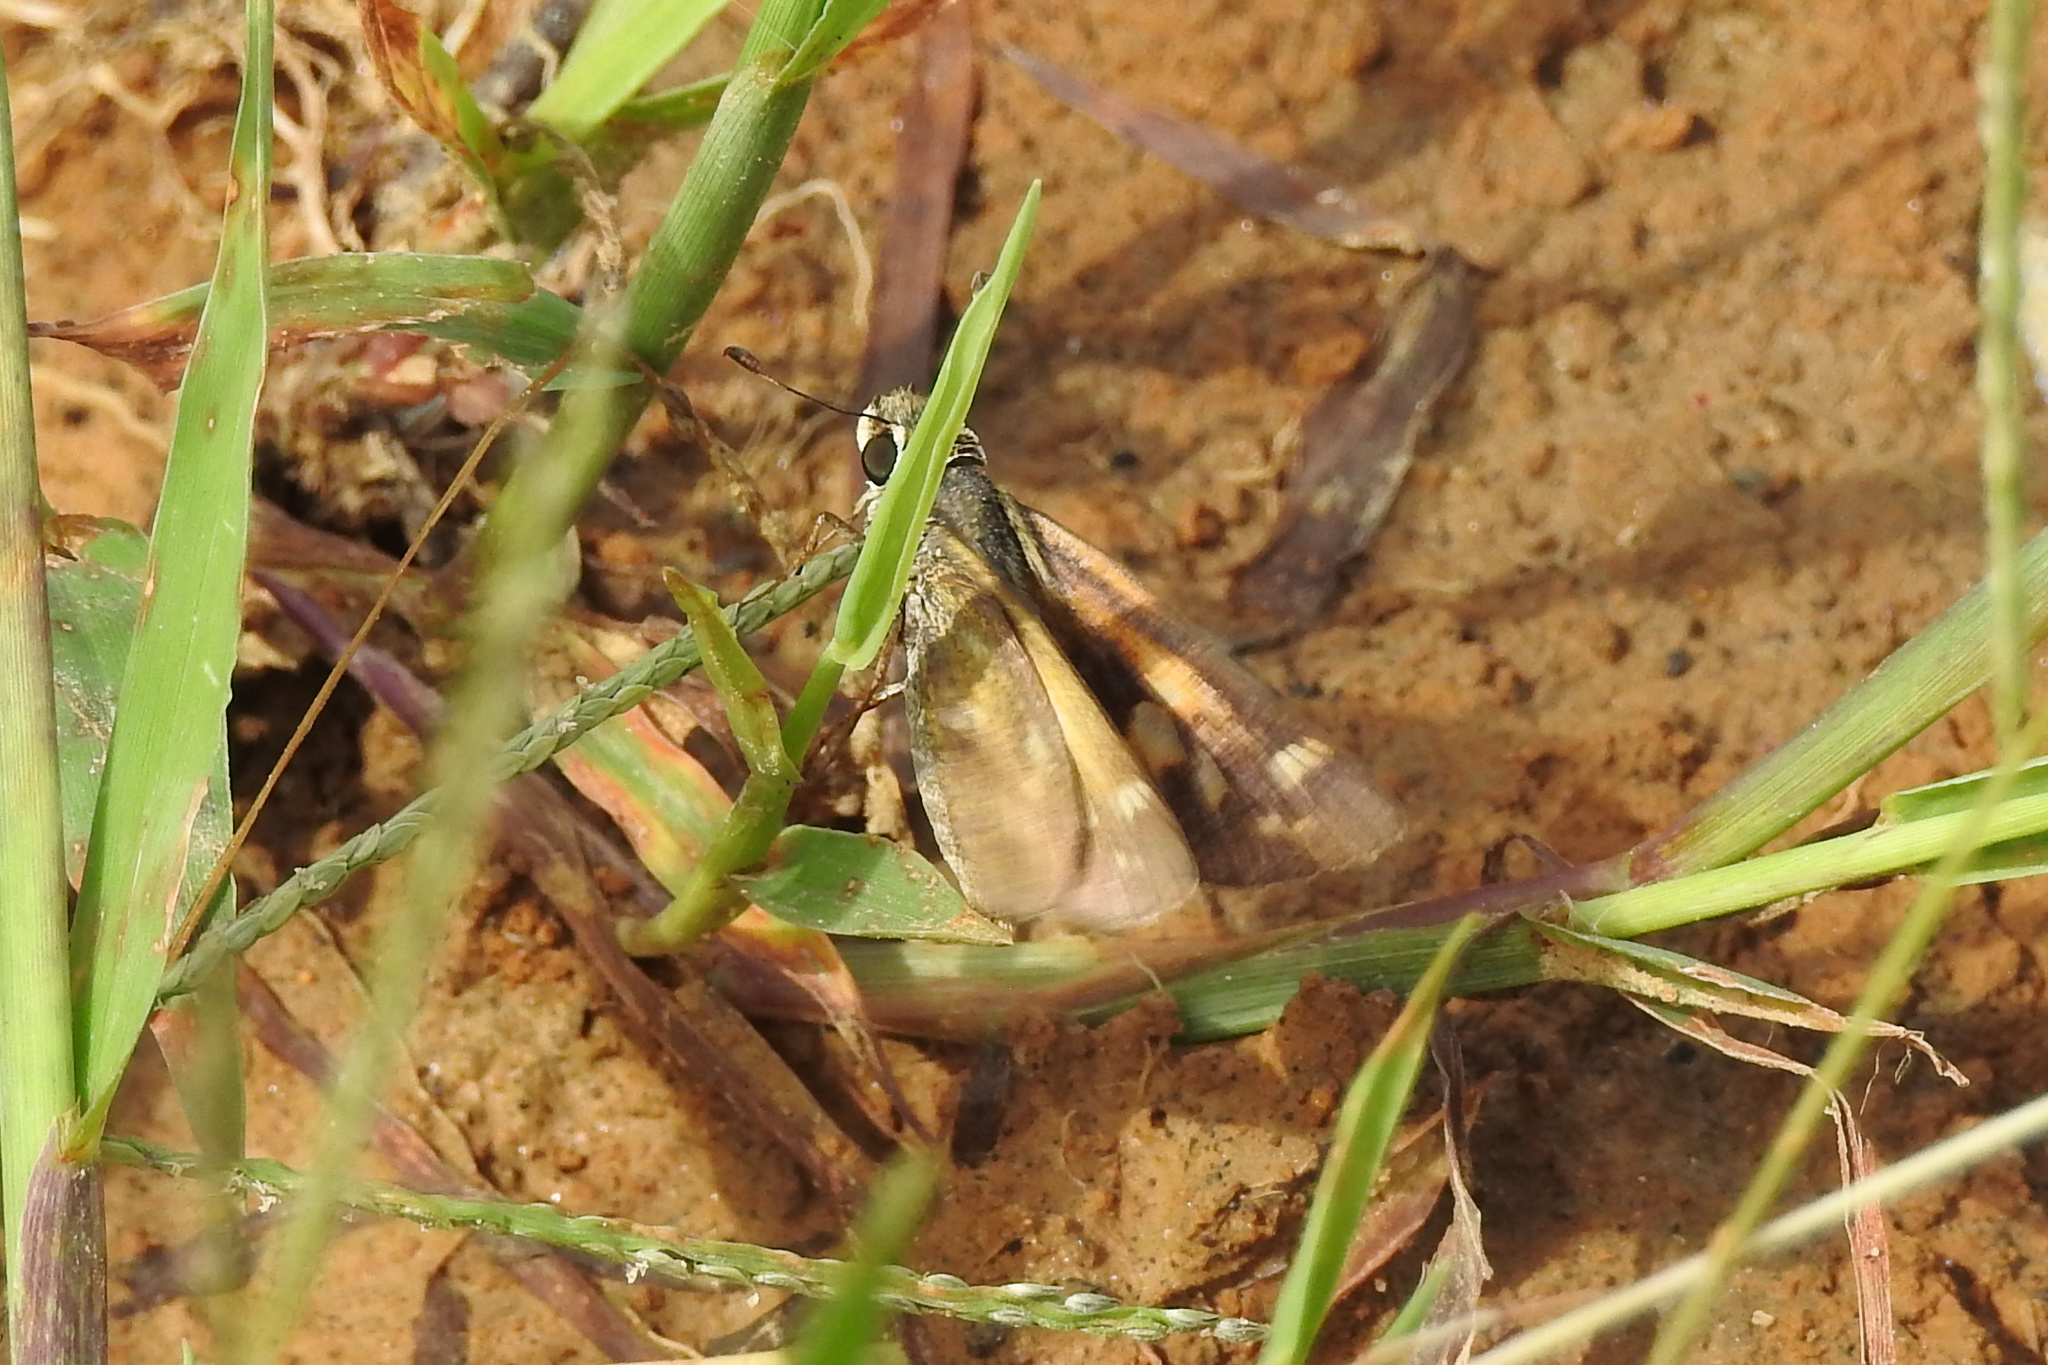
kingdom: Animalia
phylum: Arthropoda
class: Insecta
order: Lepidoptera
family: Hesperiidae
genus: Atalopedes
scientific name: Atalopedes
